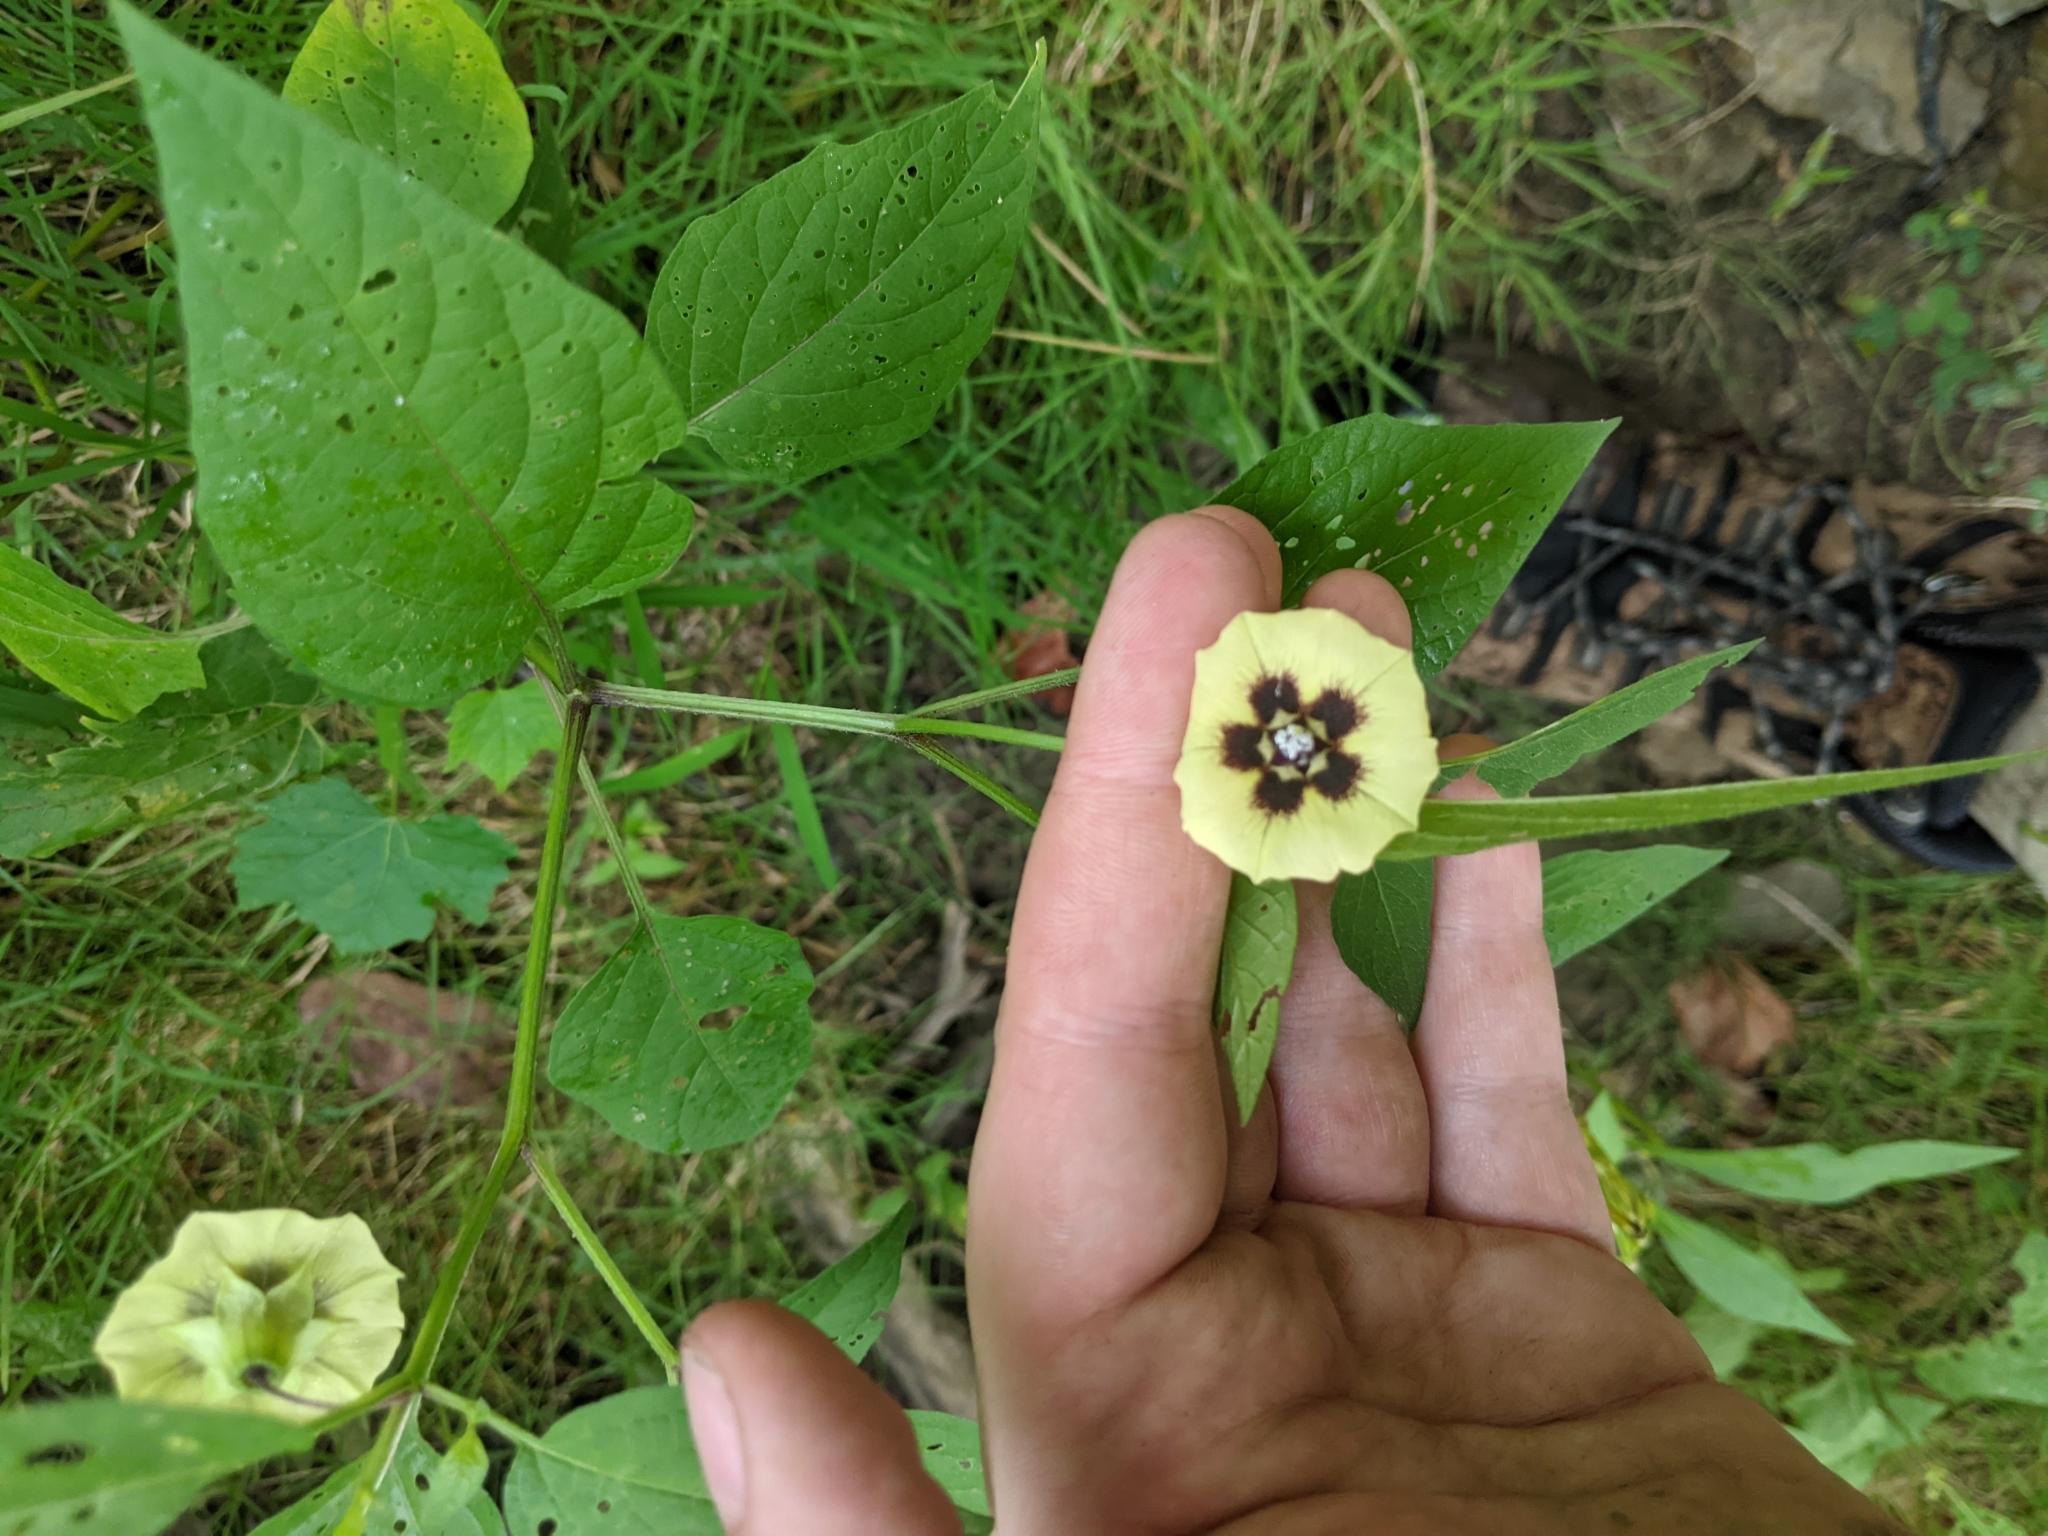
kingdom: Plantae
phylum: Tracheophyta
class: Magnoliopsida
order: Solanales
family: Solanaceae
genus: Physalis
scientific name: Physalis longifolia
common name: Common ground-cherry
